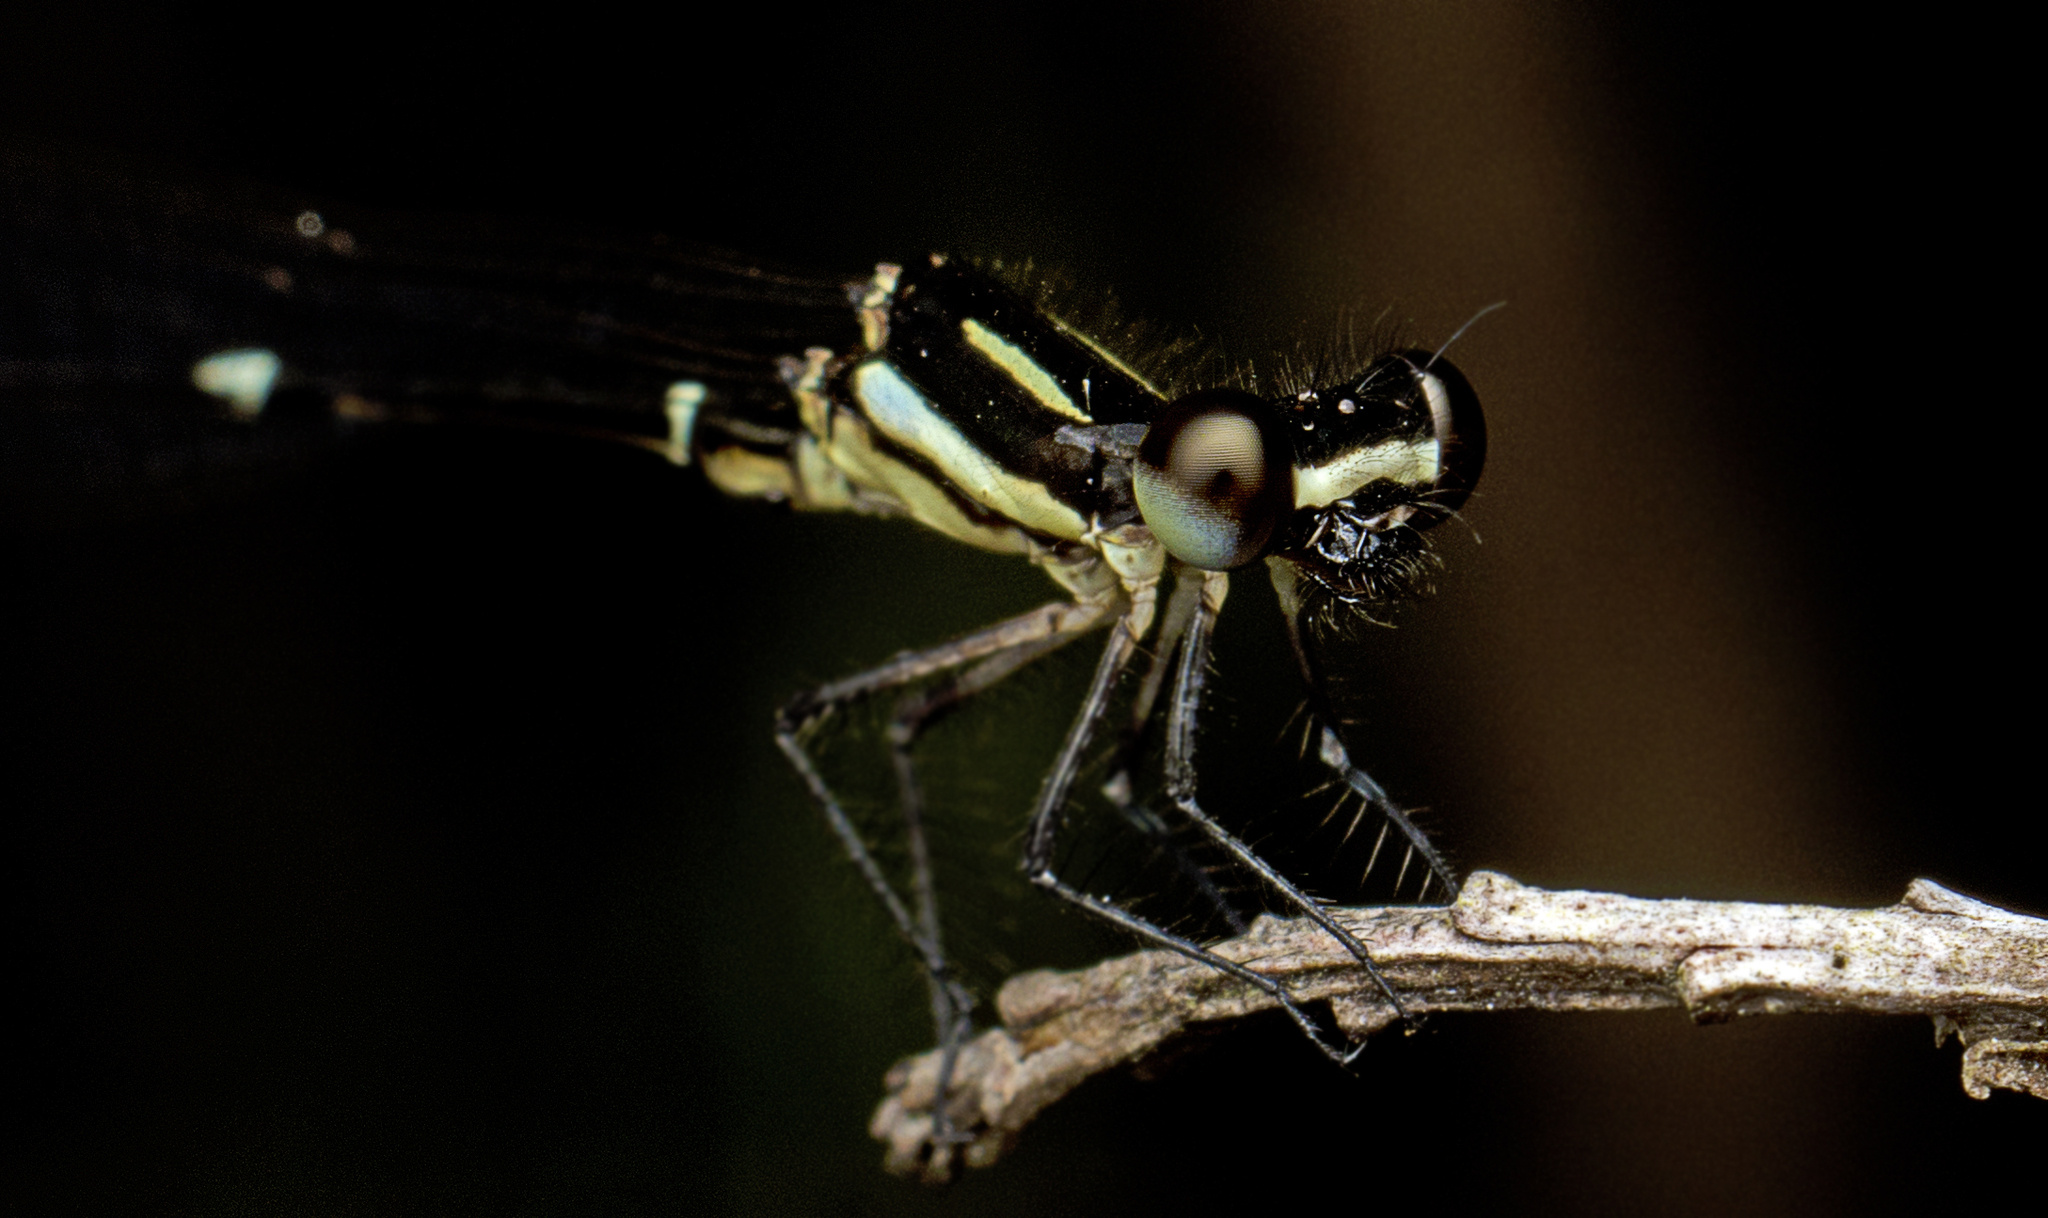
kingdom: Animalia
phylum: Arthropoda
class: Insecta
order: Odonata
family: Platycnemididae
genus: Nososticta
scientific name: Nososticta solitaria
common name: Fivespot threadtail
